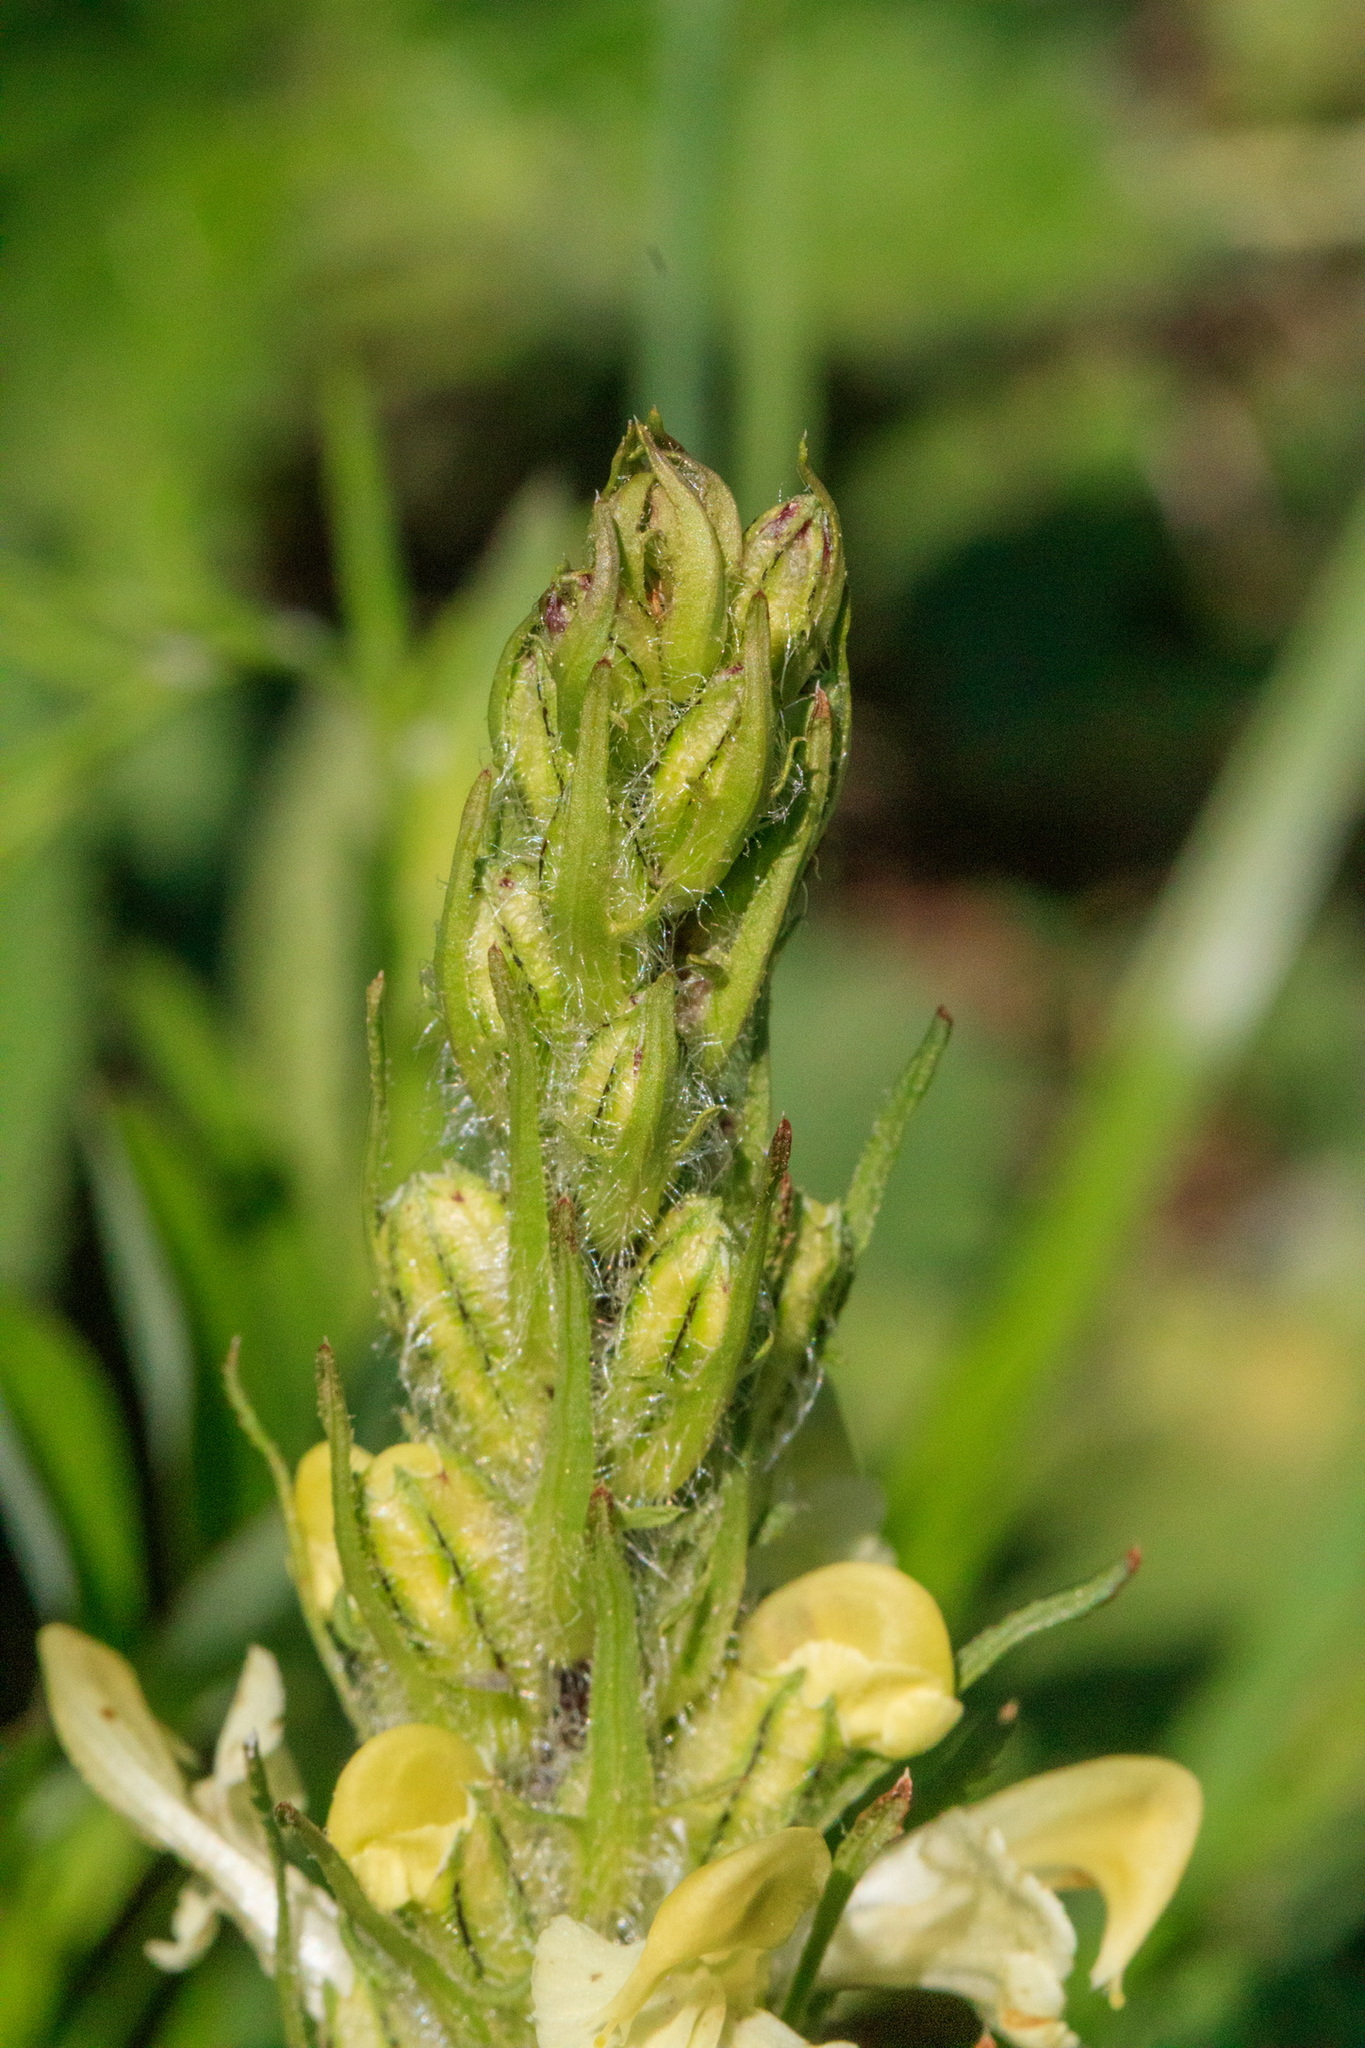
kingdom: Plantae
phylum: Tracheophyta
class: Magnoliopsida
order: Lamiales
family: Orobanchaceae
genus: Pedicularis
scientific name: Pedicularis dolichorrhiza
